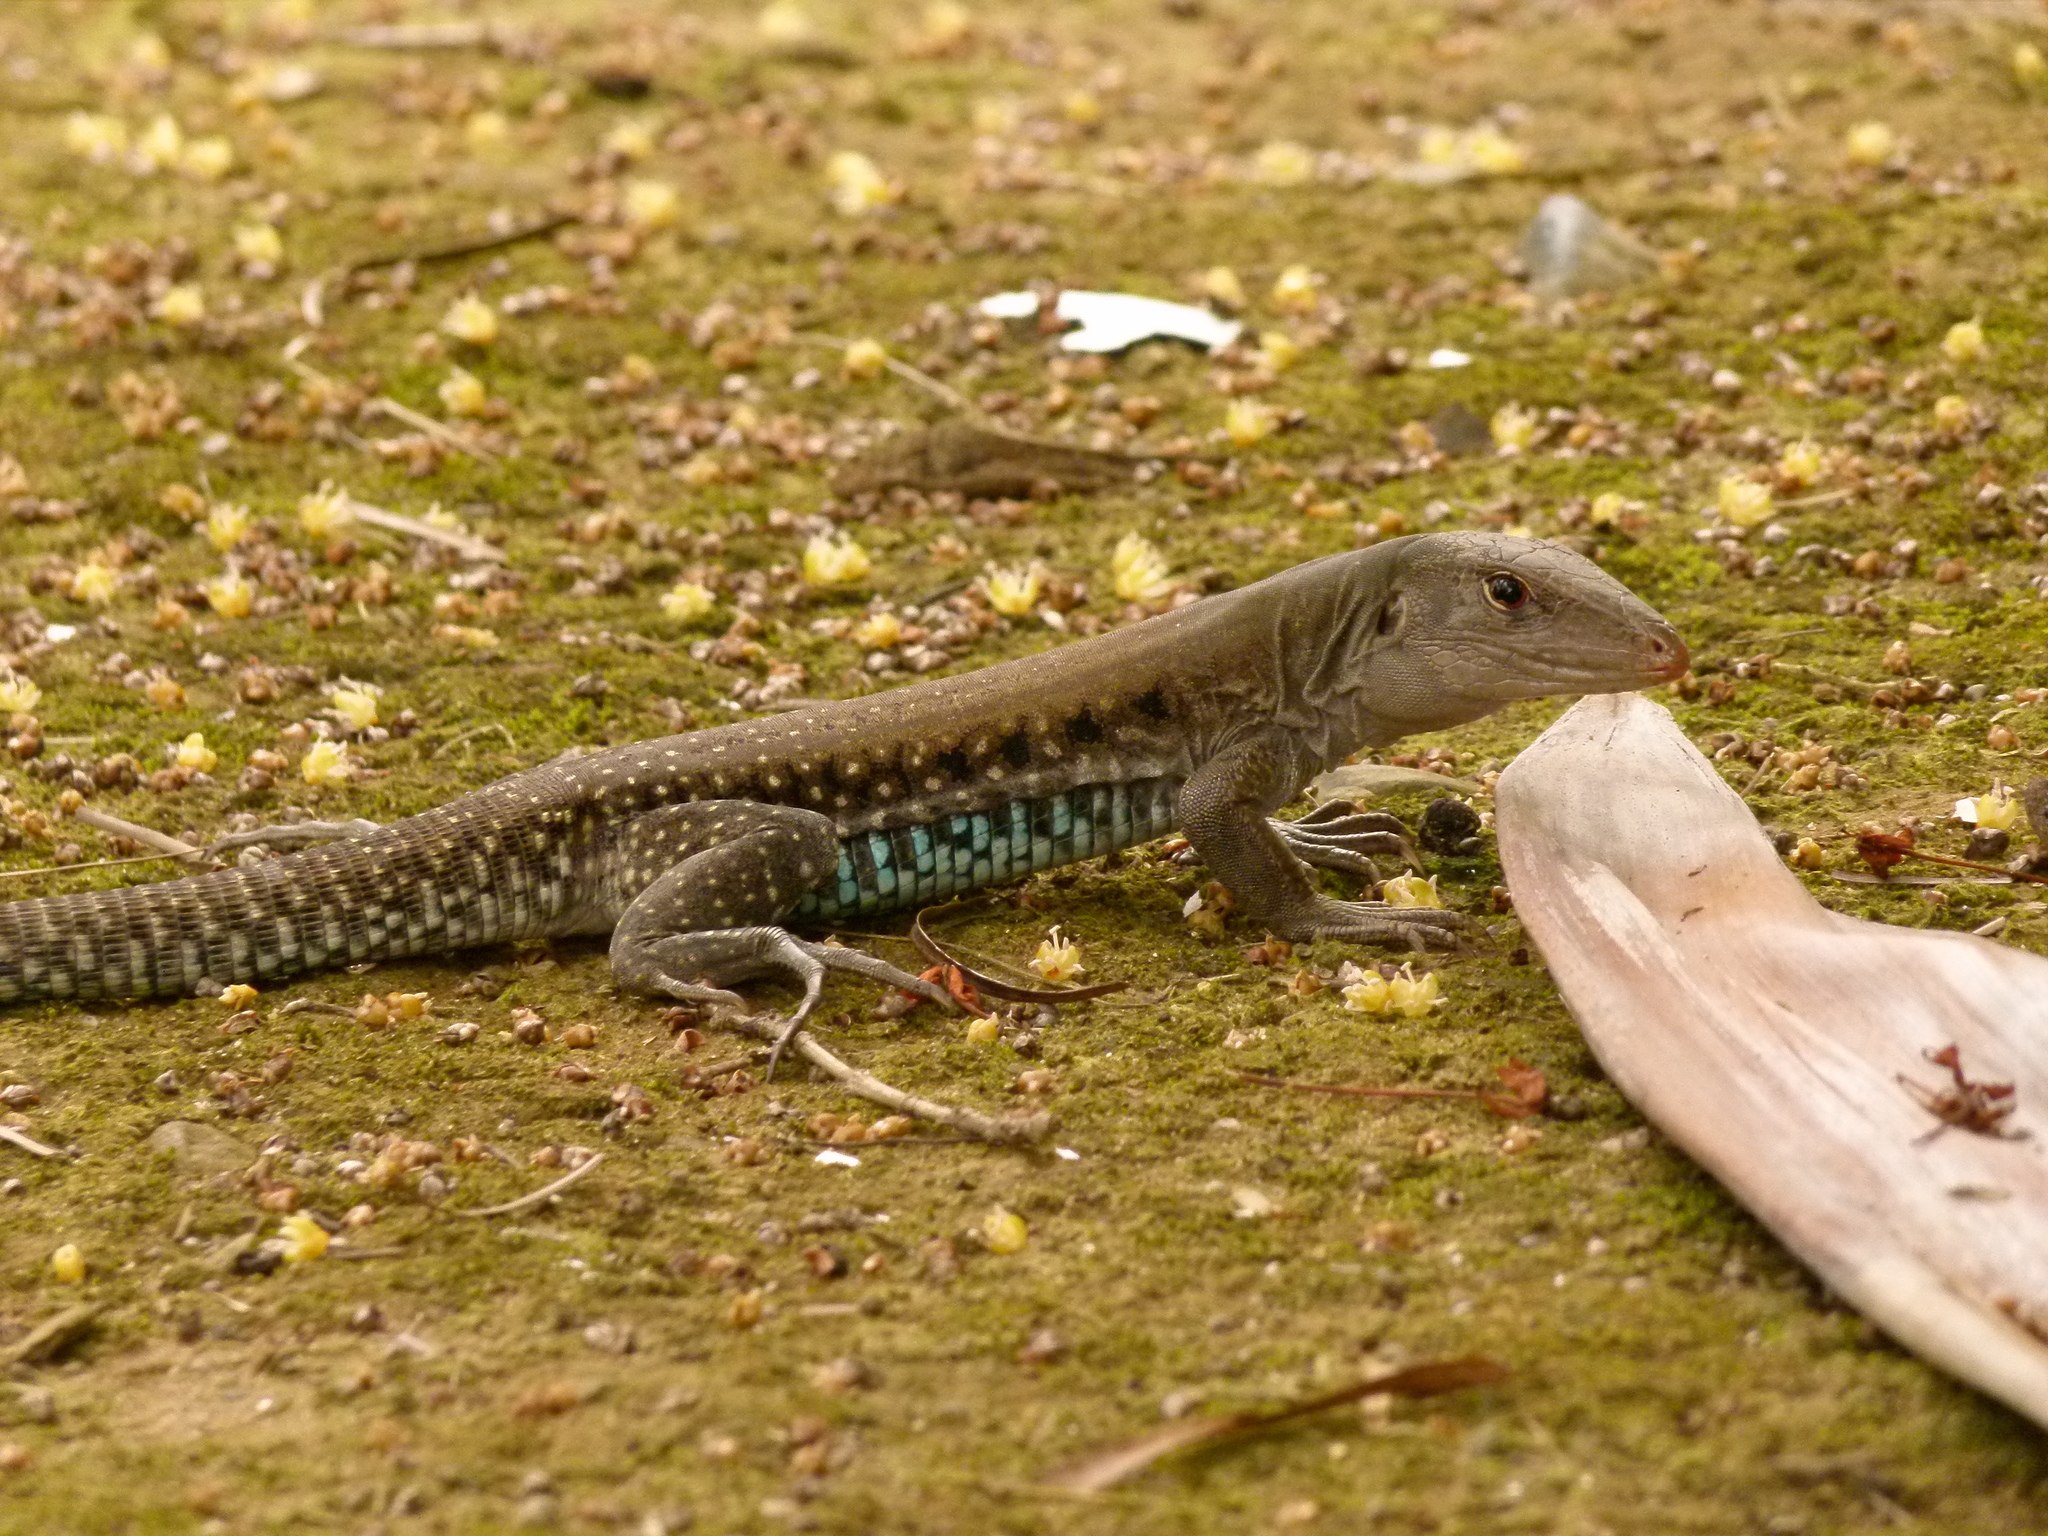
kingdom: Animalia
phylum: Chordata
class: Squamata
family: Teiidae
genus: Pholidoscelis
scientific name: Pholidoscelis exsul
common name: Common puerto rican ameiva
